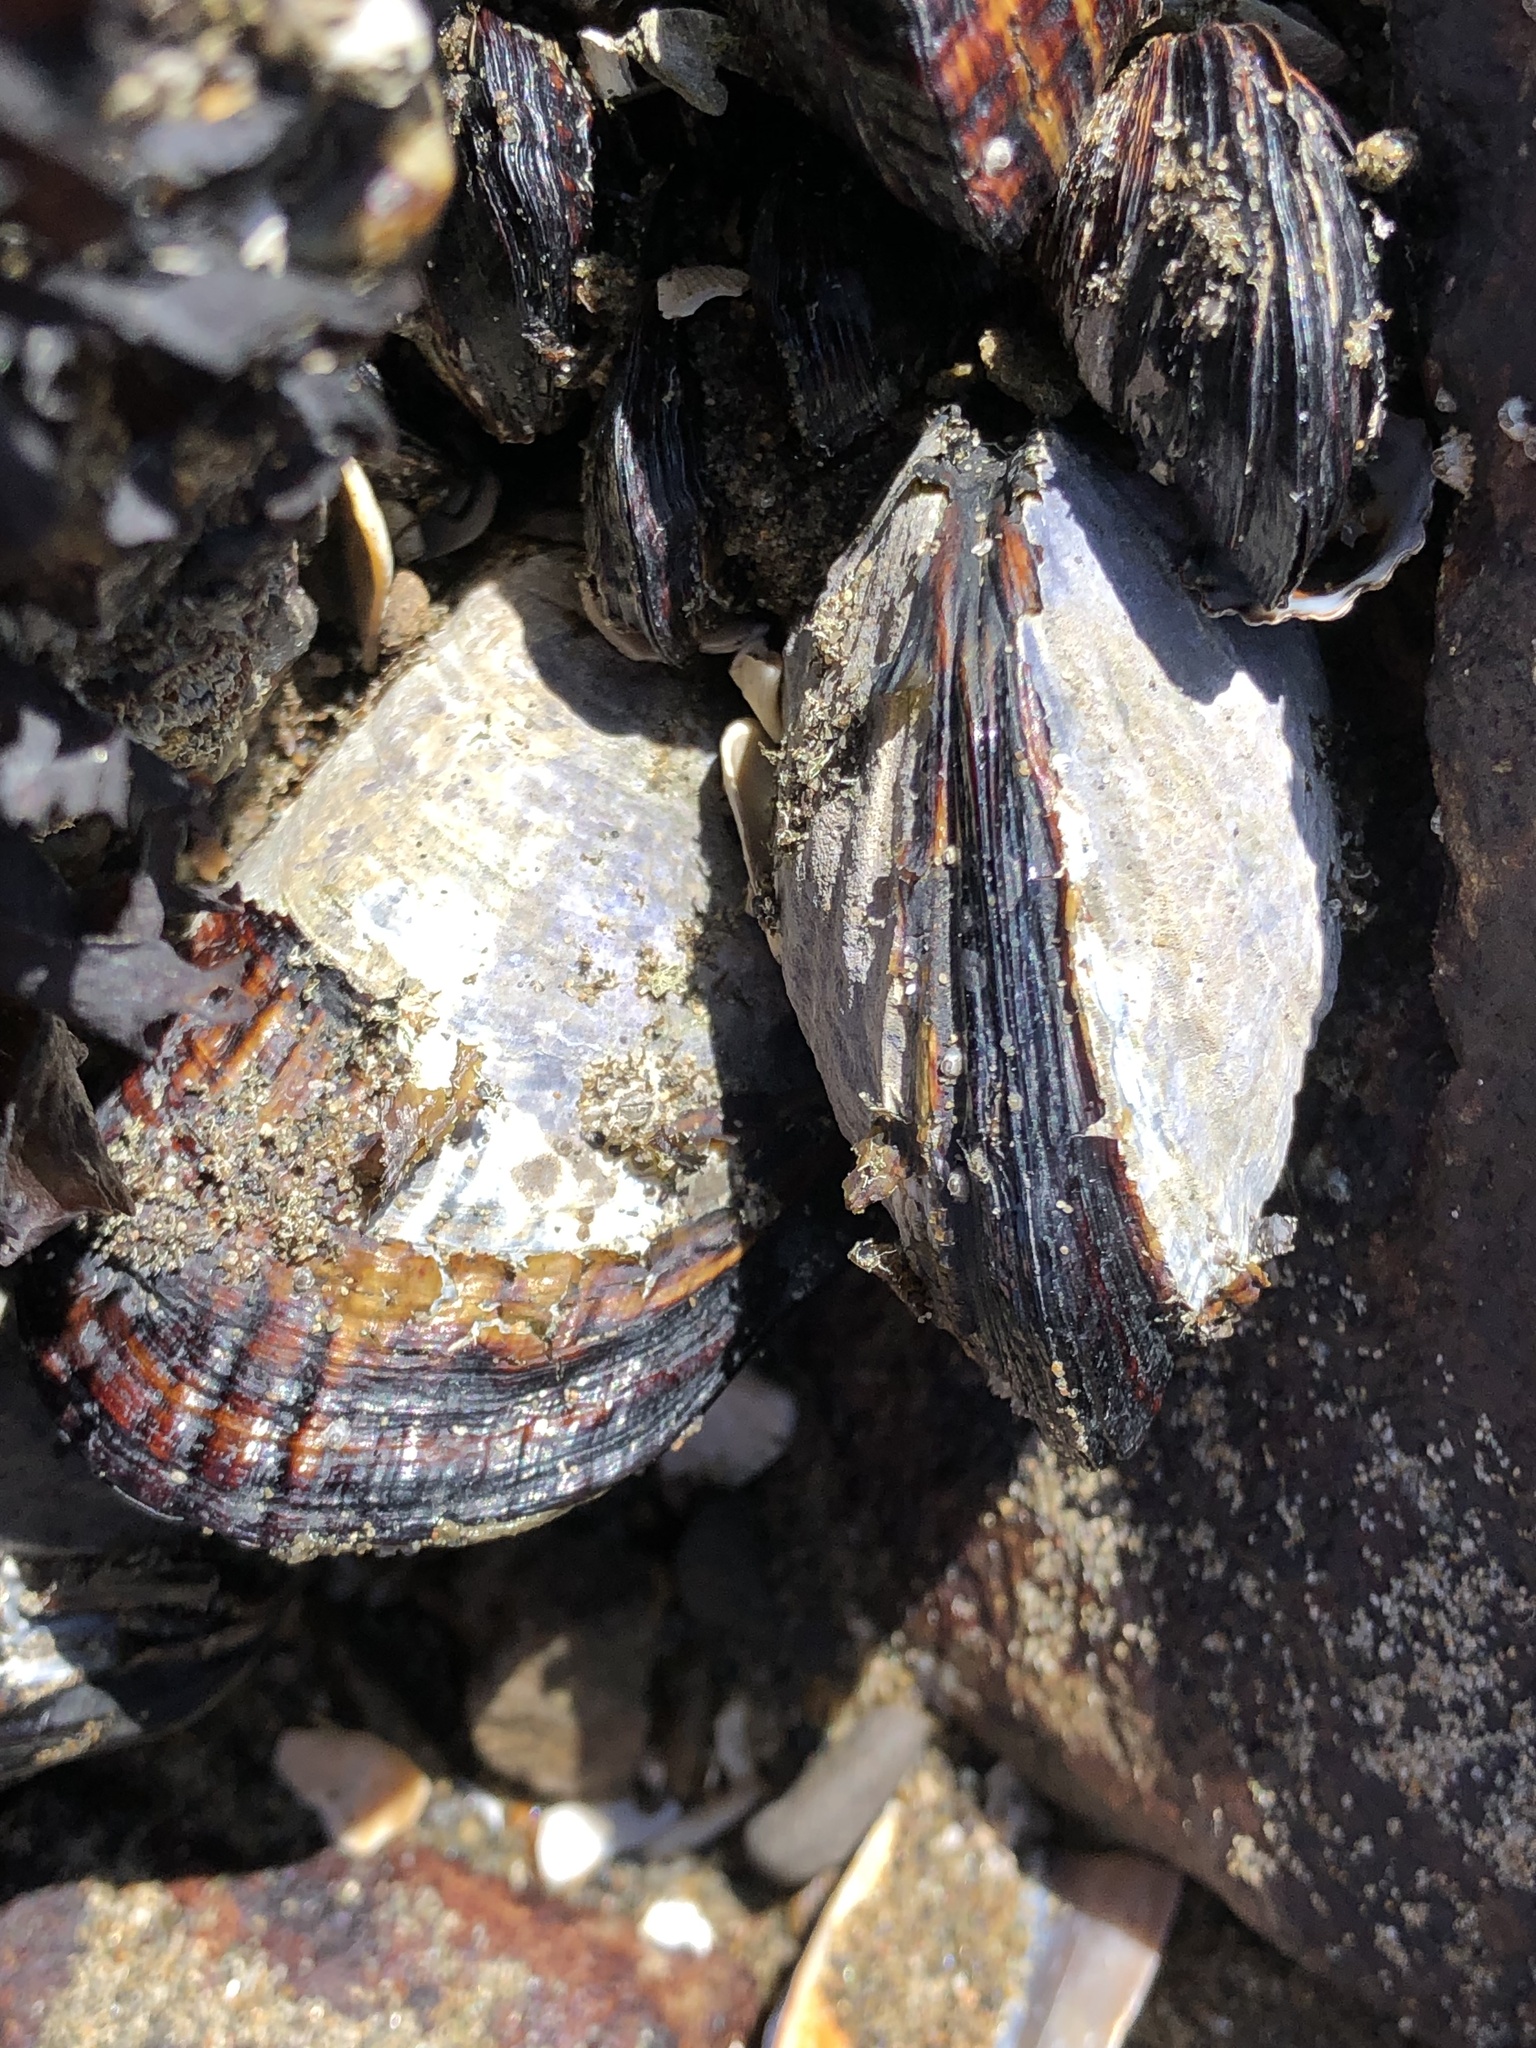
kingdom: Animalia
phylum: Mollusca
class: Bivalvia
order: Mytilida
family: Mytilidae
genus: Mytilus
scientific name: Mytilus californianus
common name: California mussel
